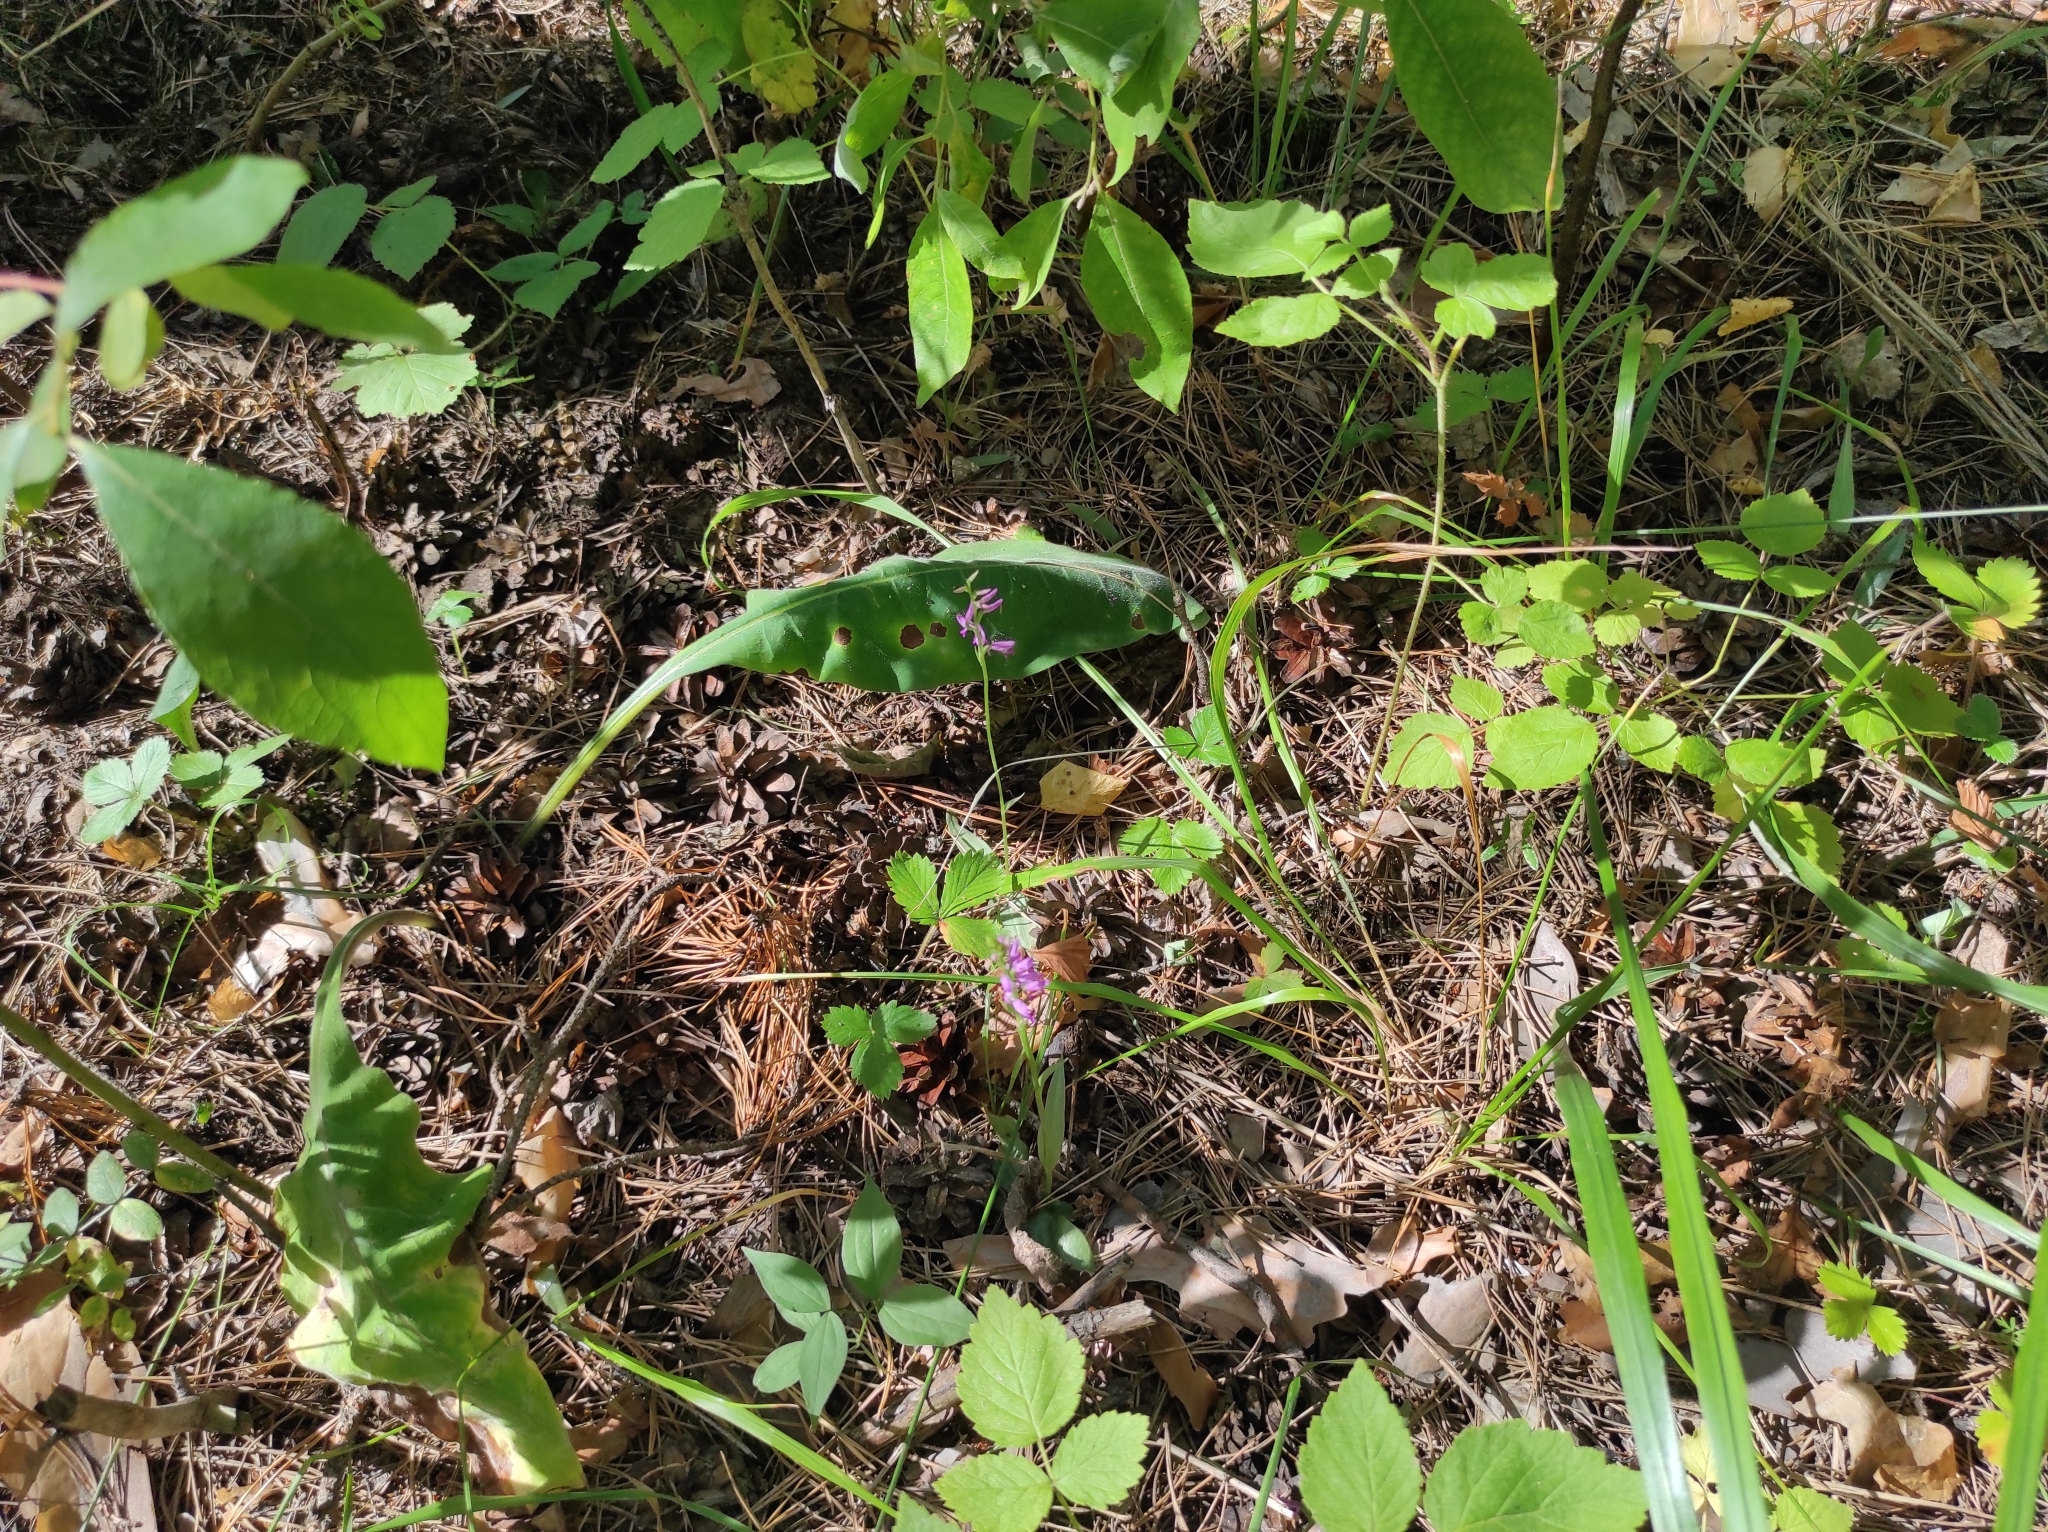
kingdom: Plantae
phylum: Tracheophyta
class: Liliopsida
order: Asparagales
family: Orchidaceae
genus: Hemipilia
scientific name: Hemipilia cucullata
